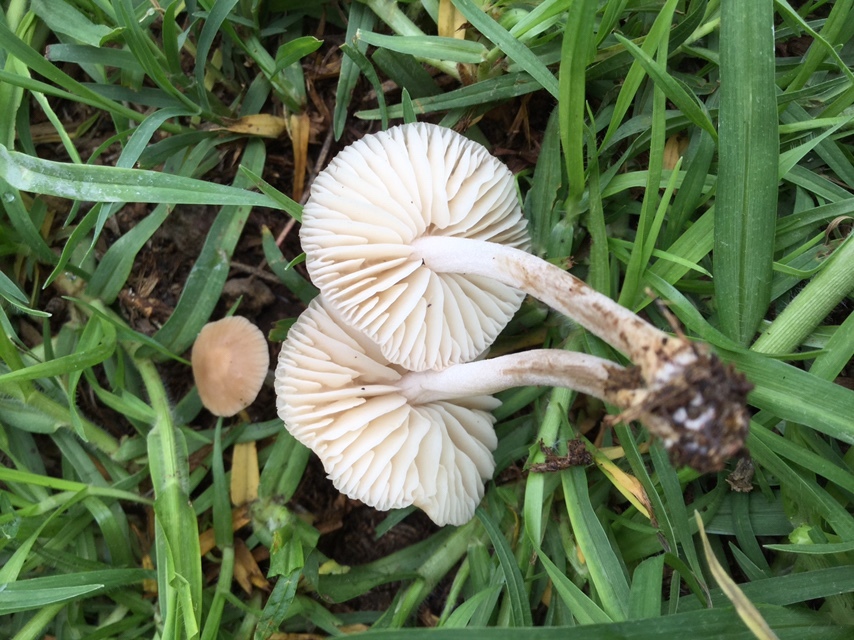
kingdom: Fungi
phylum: Basidiomycota
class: Agaricomycetes
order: Agaricales
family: Marasmiaceae
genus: Marasmius
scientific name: Marasmius oreades
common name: Fairy ring champignon
